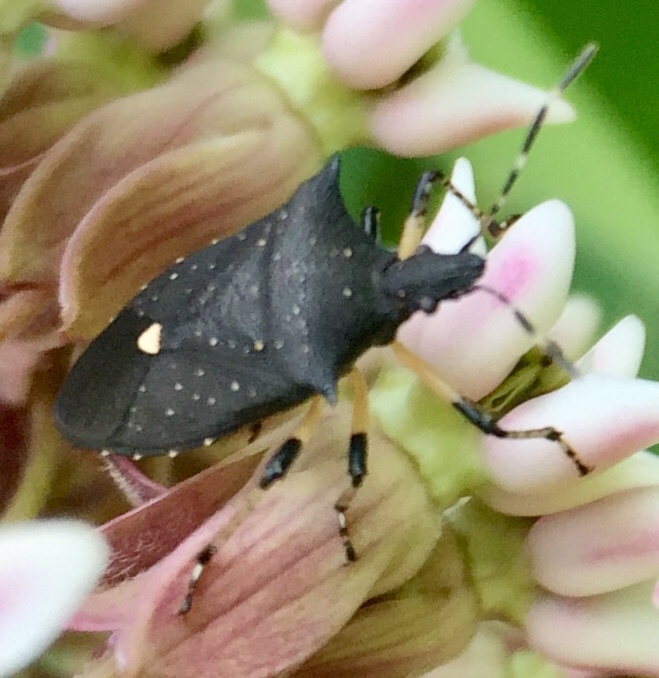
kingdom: Animalia
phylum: Arthropoda
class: Insecta
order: Hemiptera
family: Pentatomidae
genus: Proxys
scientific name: Proxys punctulatus
